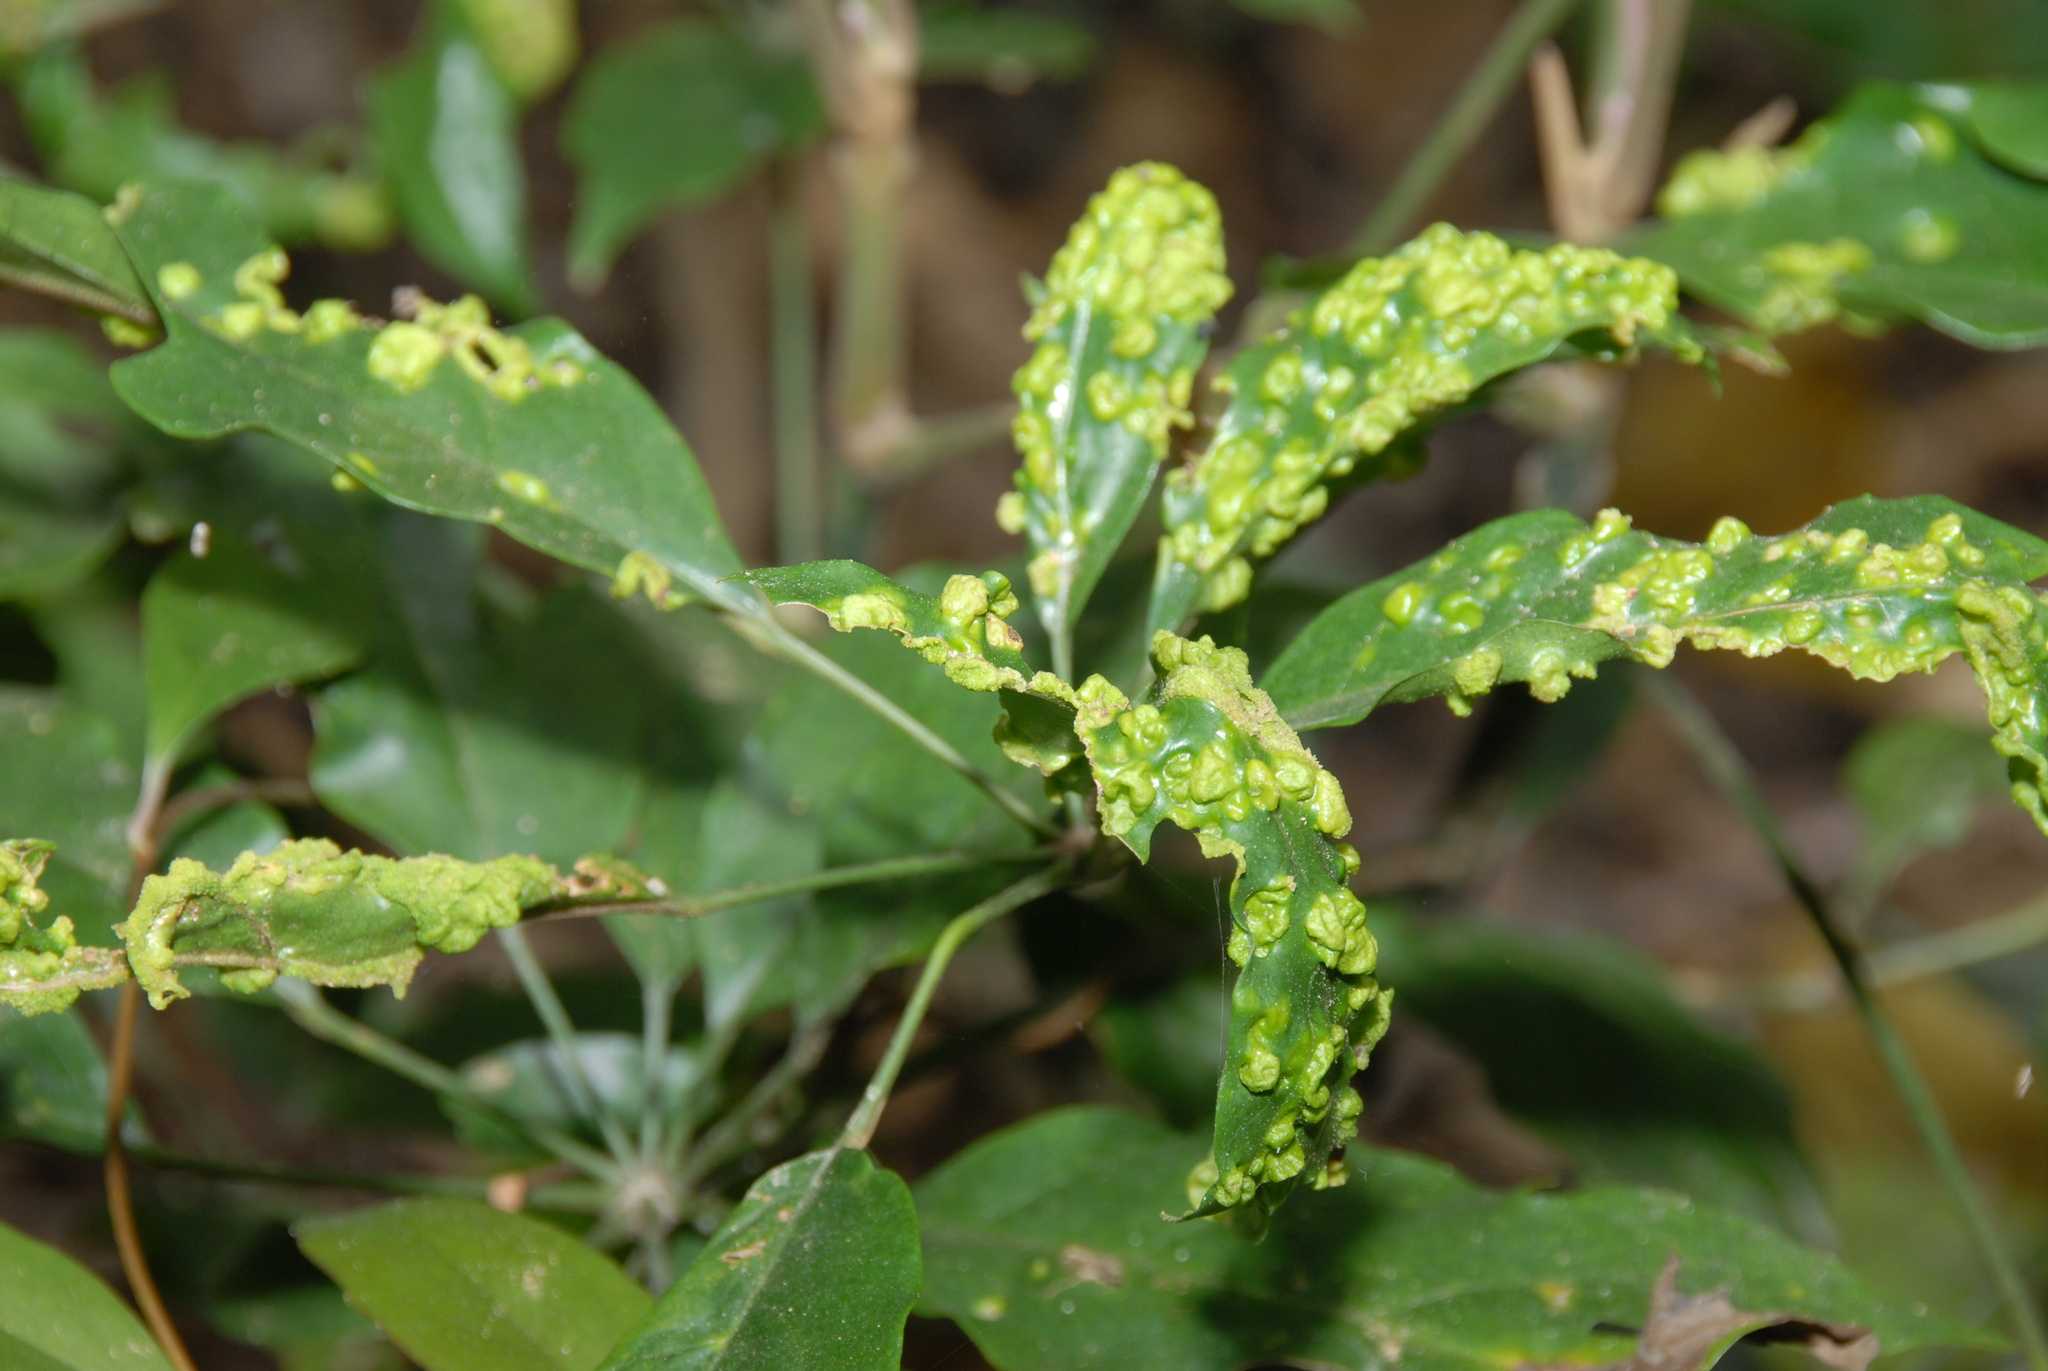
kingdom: Plantae
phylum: Tracheophyta
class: Magnoliopsida
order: Apiales
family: Araliaceae
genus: Heptapleurum
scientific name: Heptapleurum heptaphyllum
